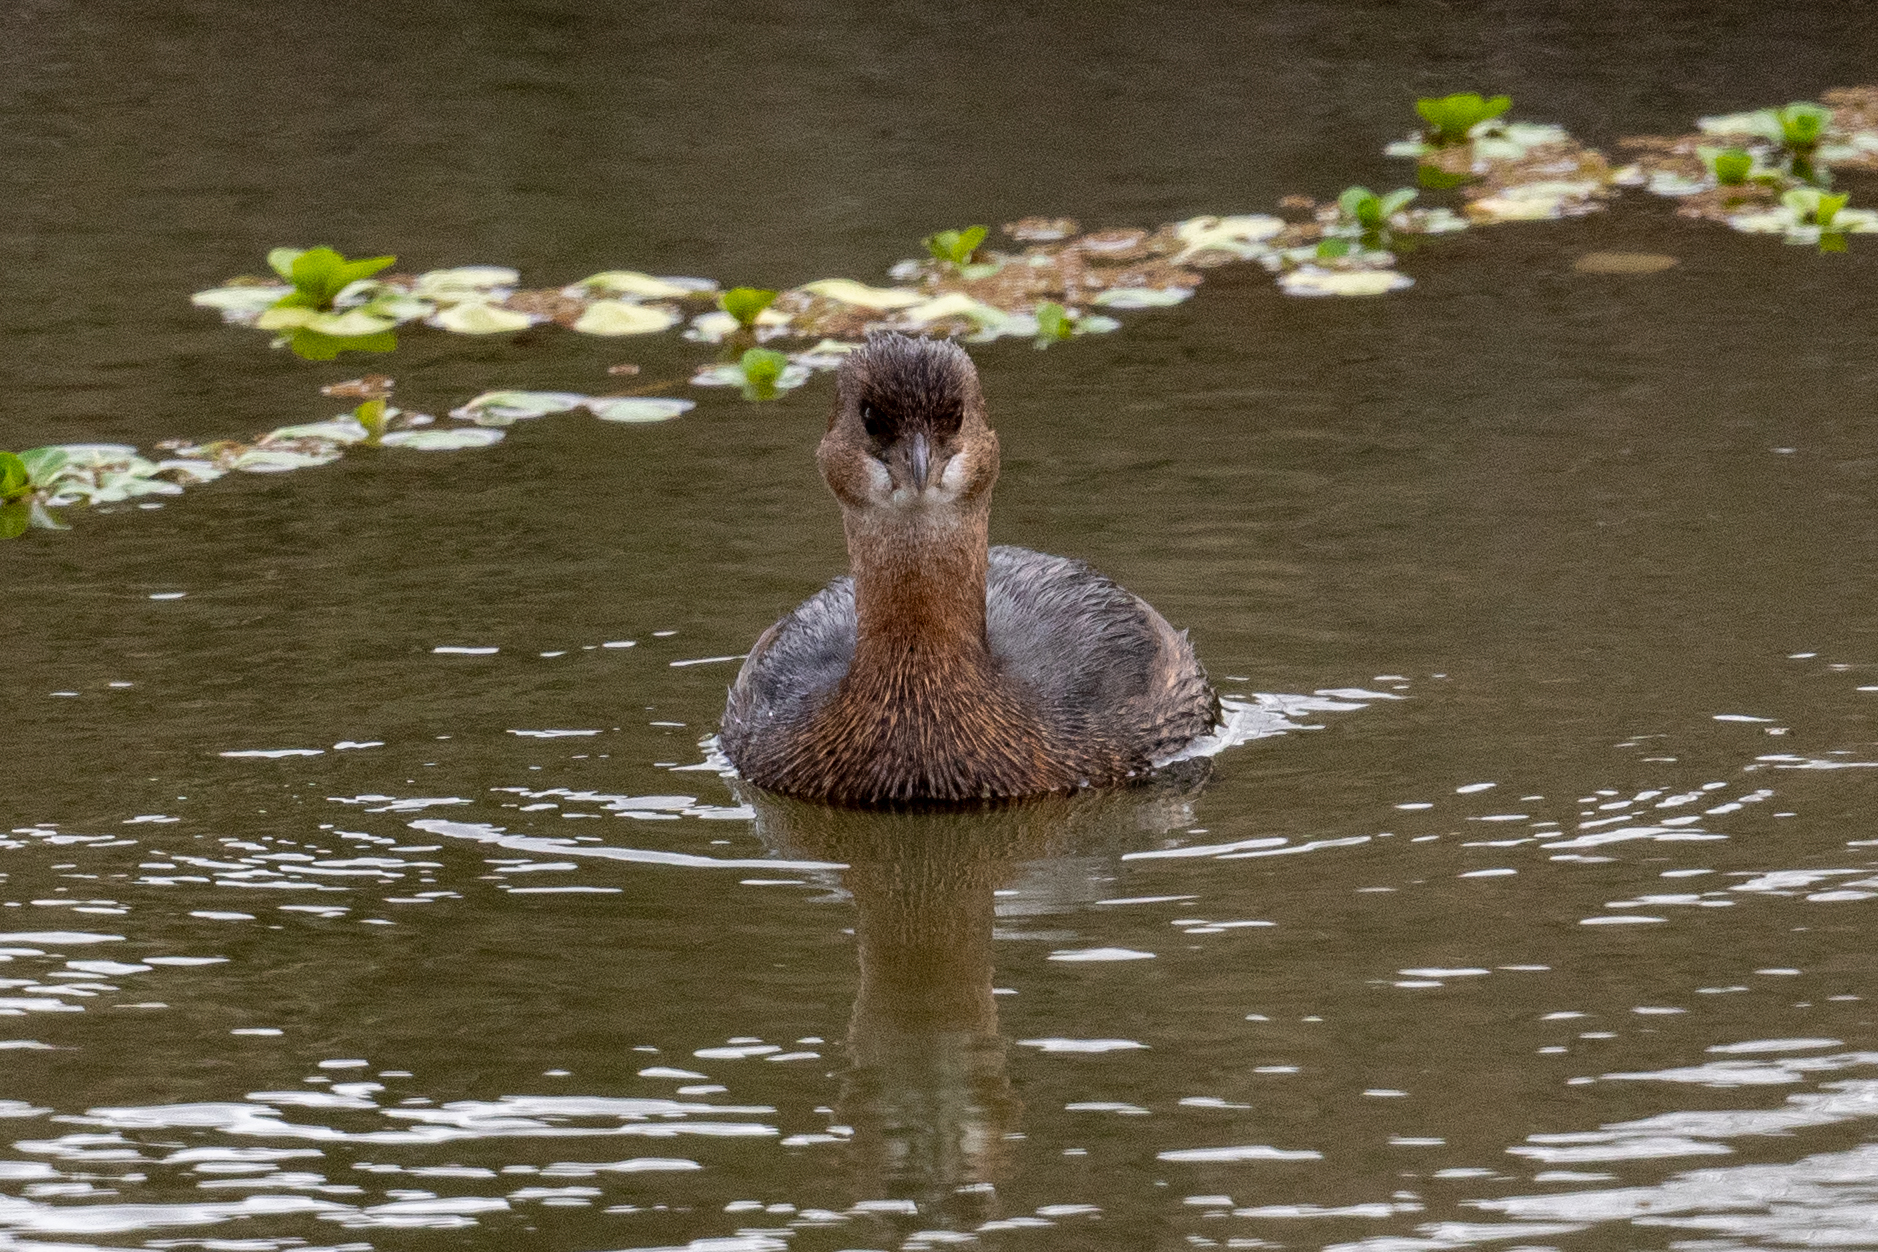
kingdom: Animalia
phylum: Chordata
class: Aves
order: Podicipediformes
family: Podicipedidae
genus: Podilymbus
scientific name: Podilymbus podiceps
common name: Pied-billed grebe
